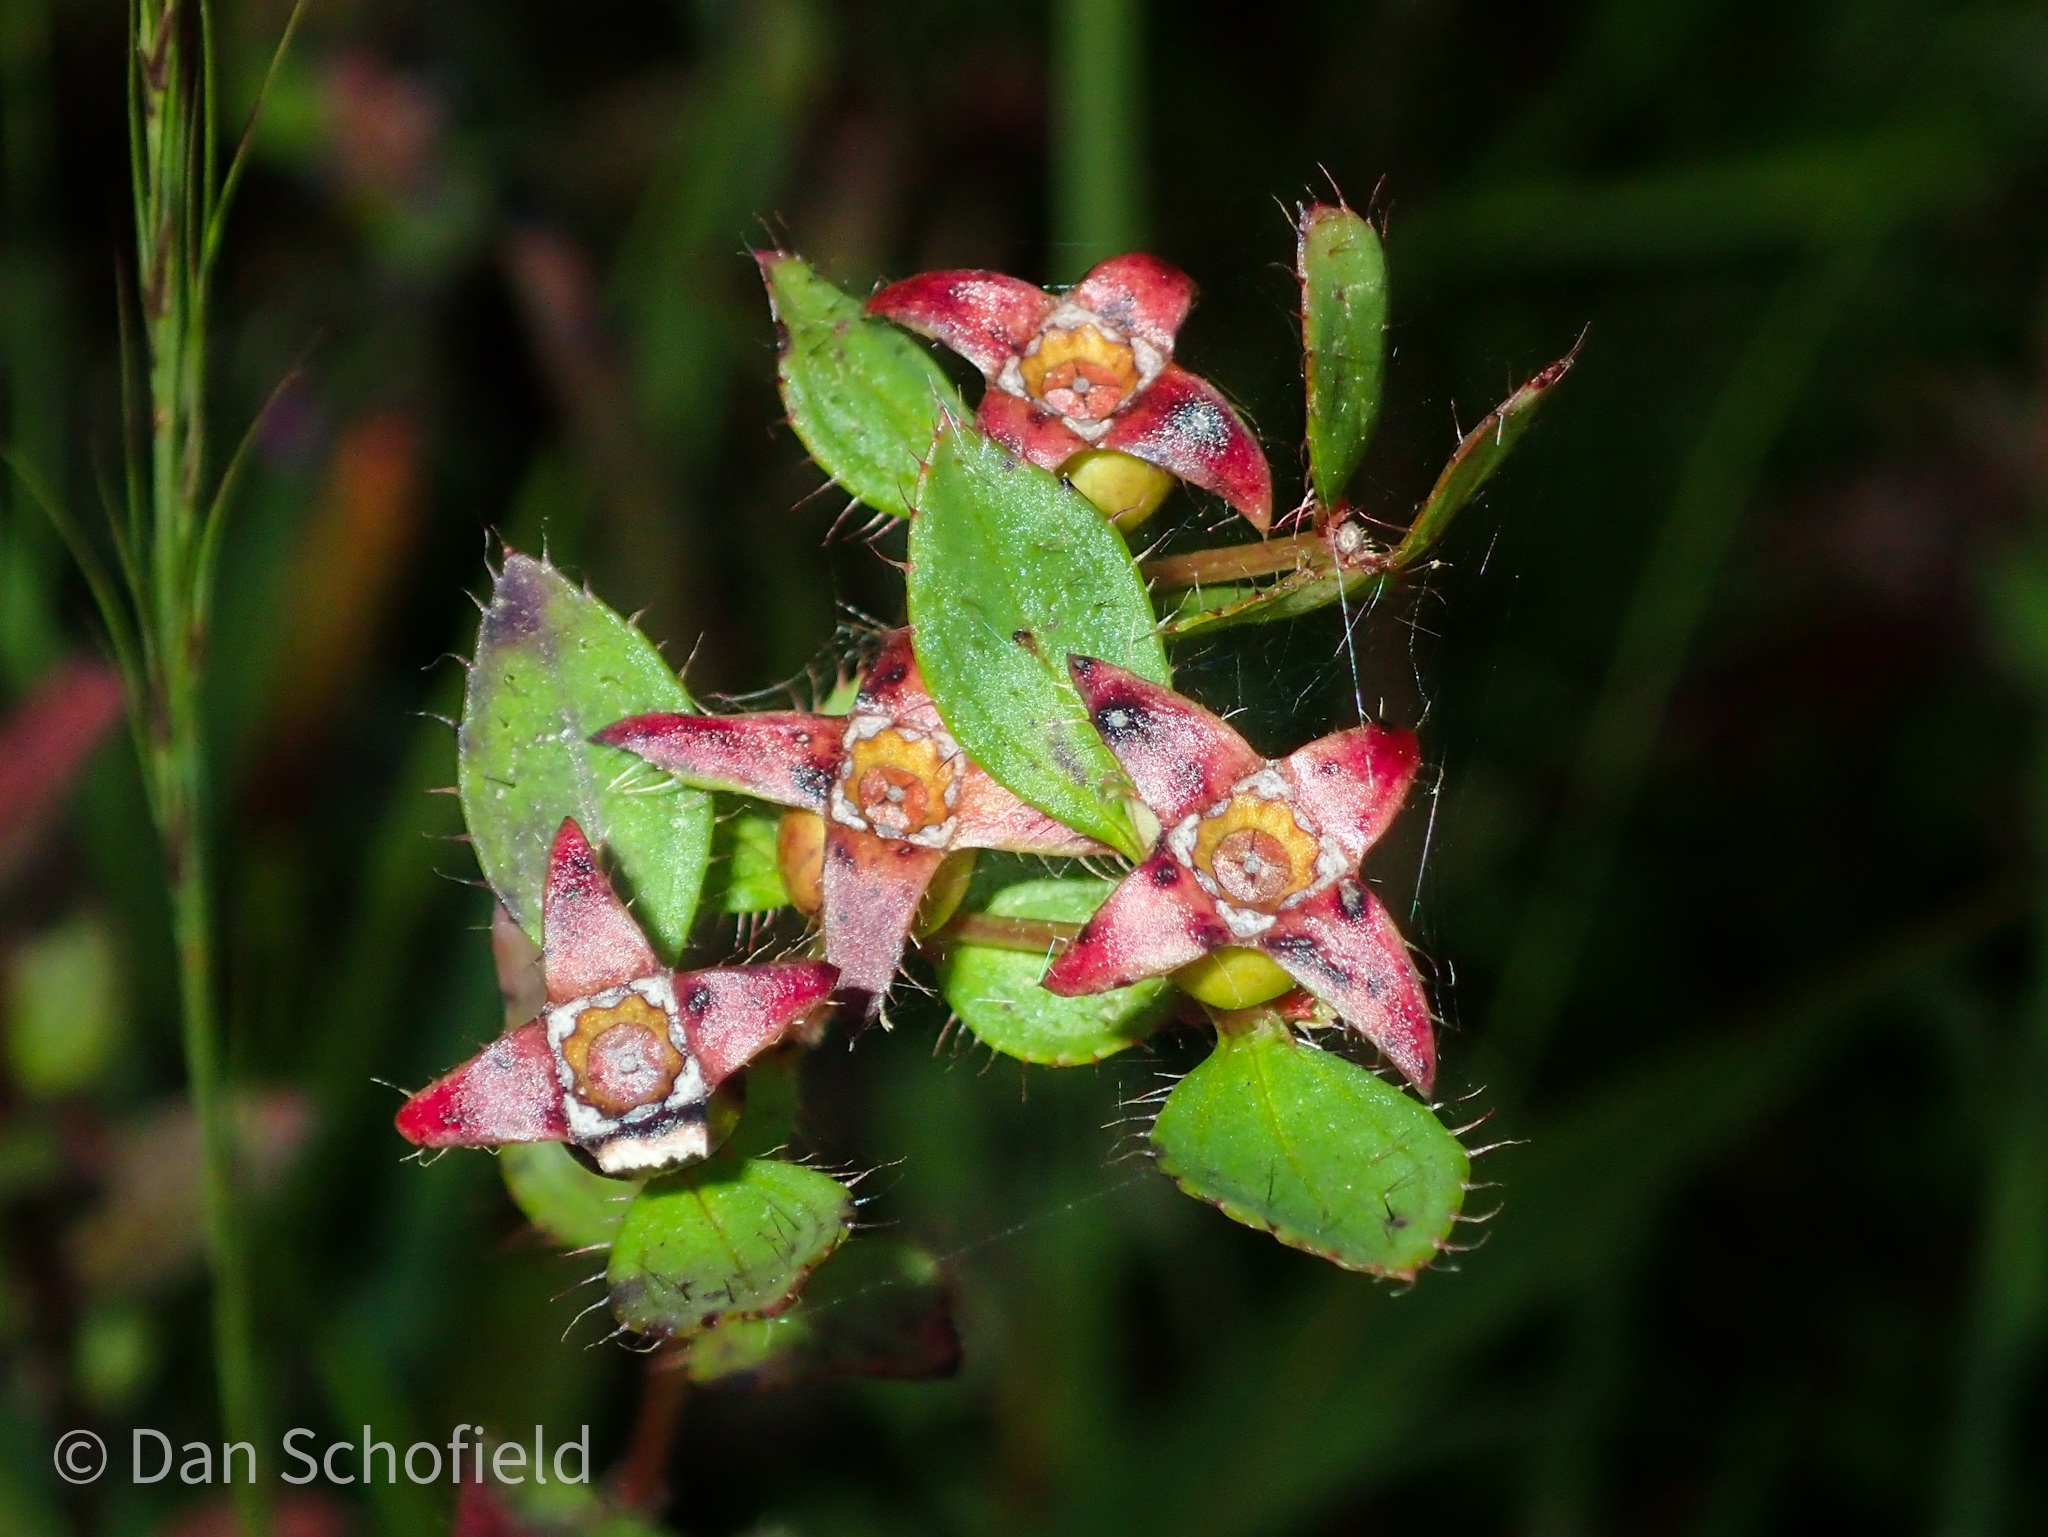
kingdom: Plantae
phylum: Tracheophyta
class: Magnoliopsida
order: Myrtales
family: Melastomataceae
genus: Rhexia
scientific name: Rhexia petiolata
